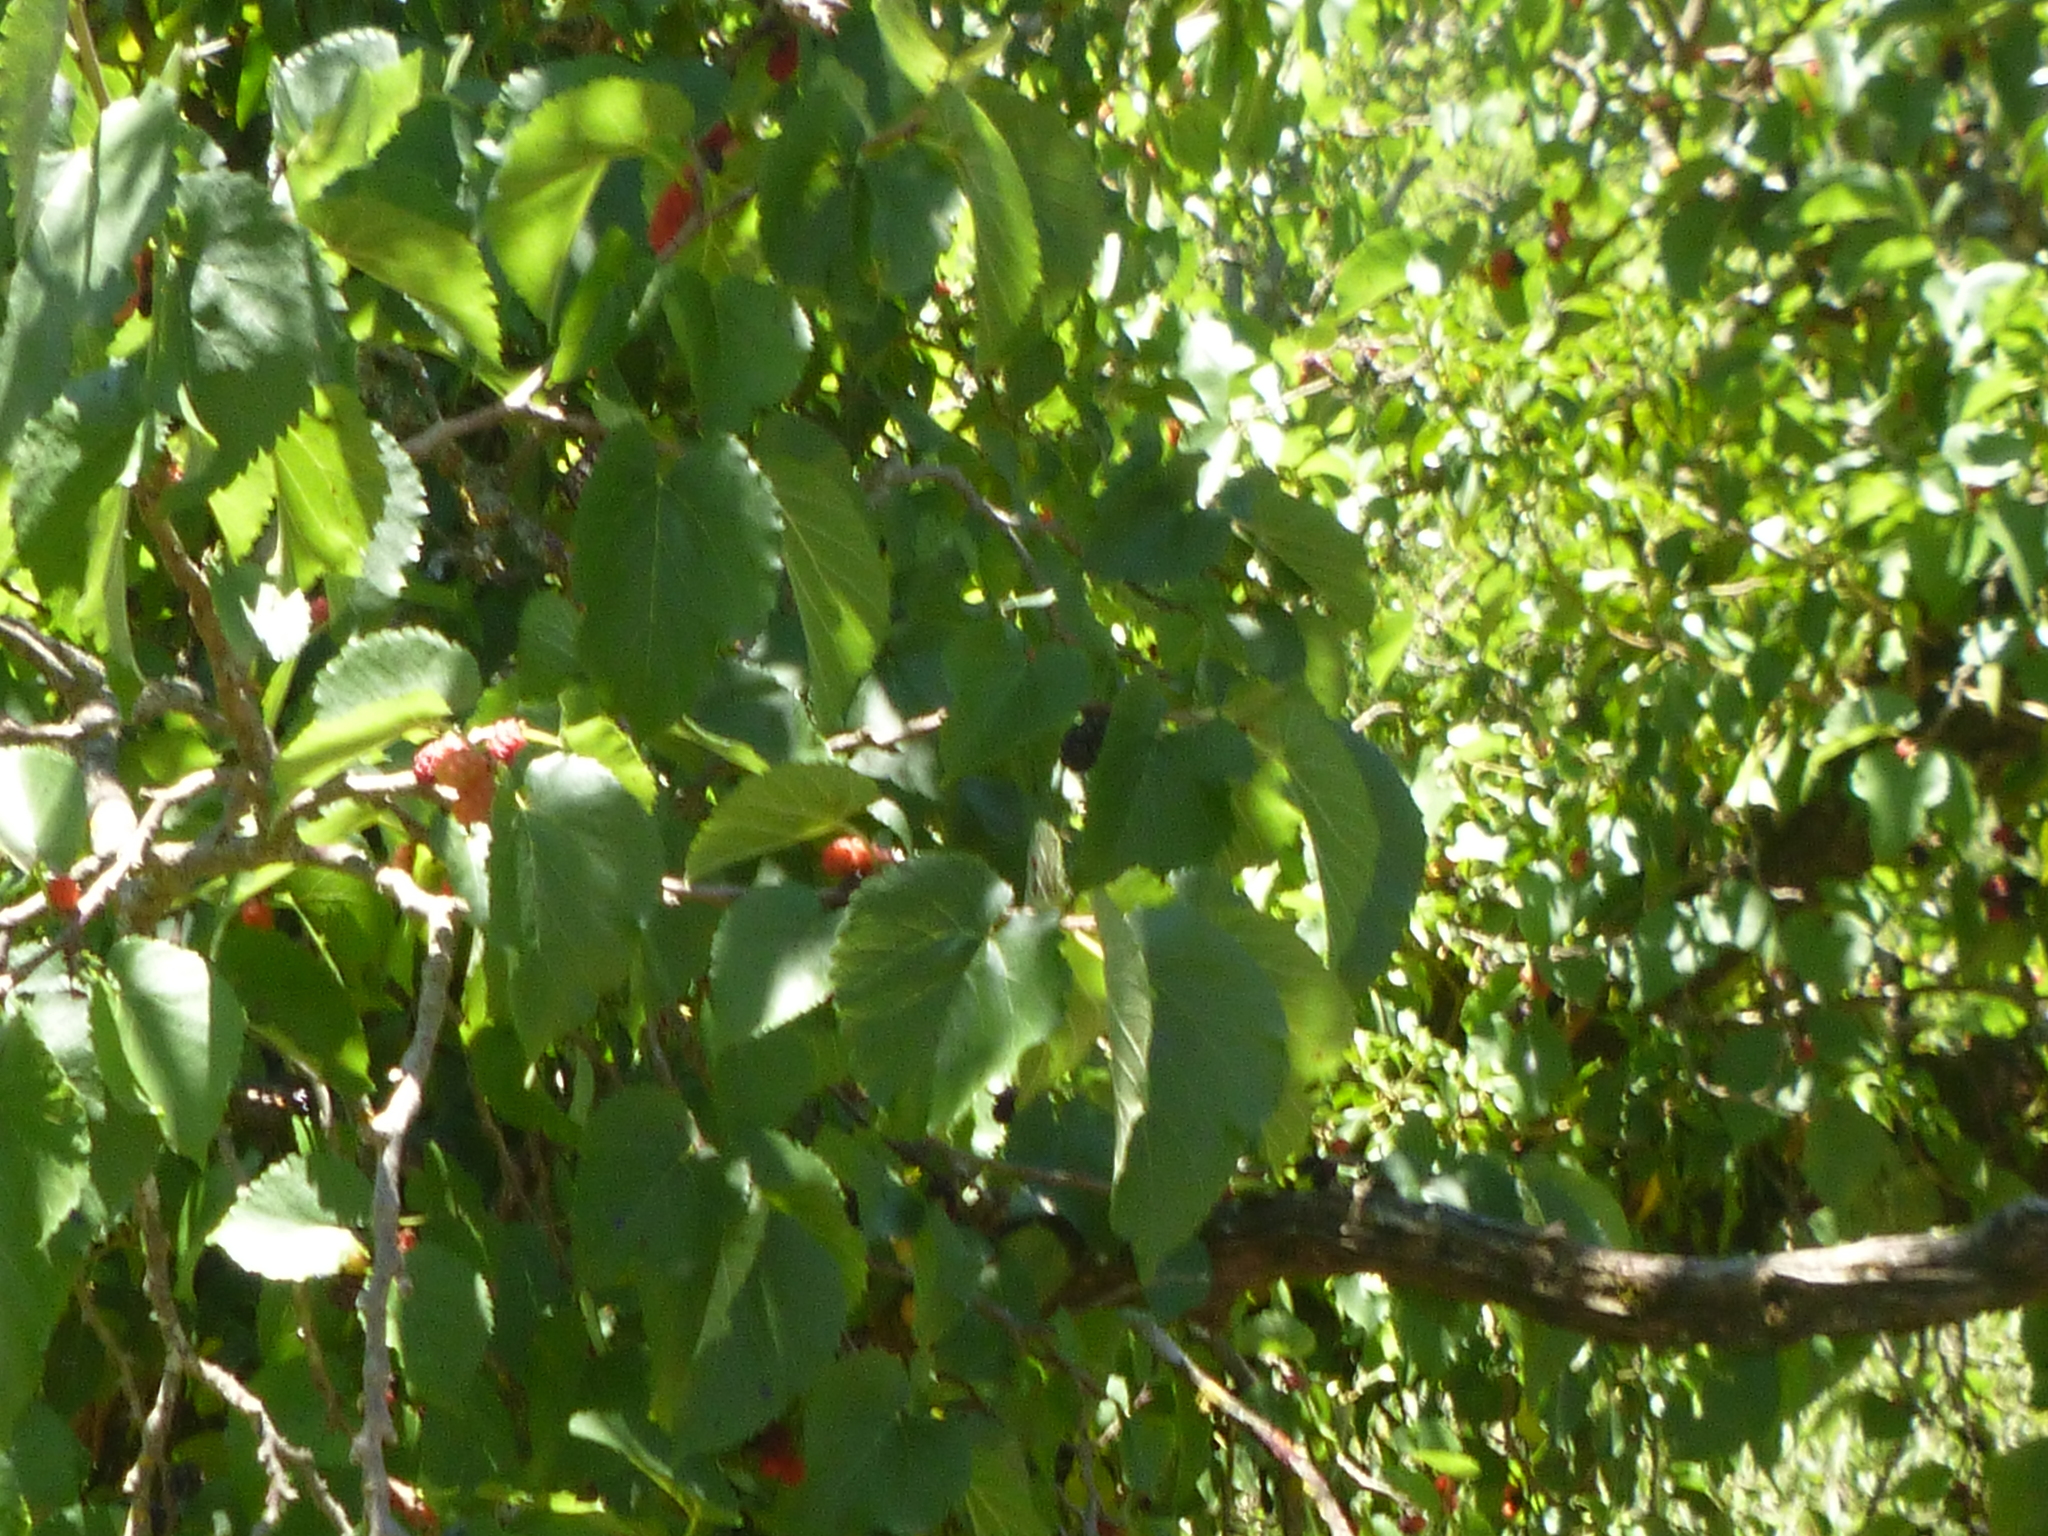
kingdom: Plantae
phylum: Tracheophyta
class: Magnoliopsida
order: Rosales
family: Moraceae
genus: Morus
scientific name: Morus nigra
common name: Black mulberry
